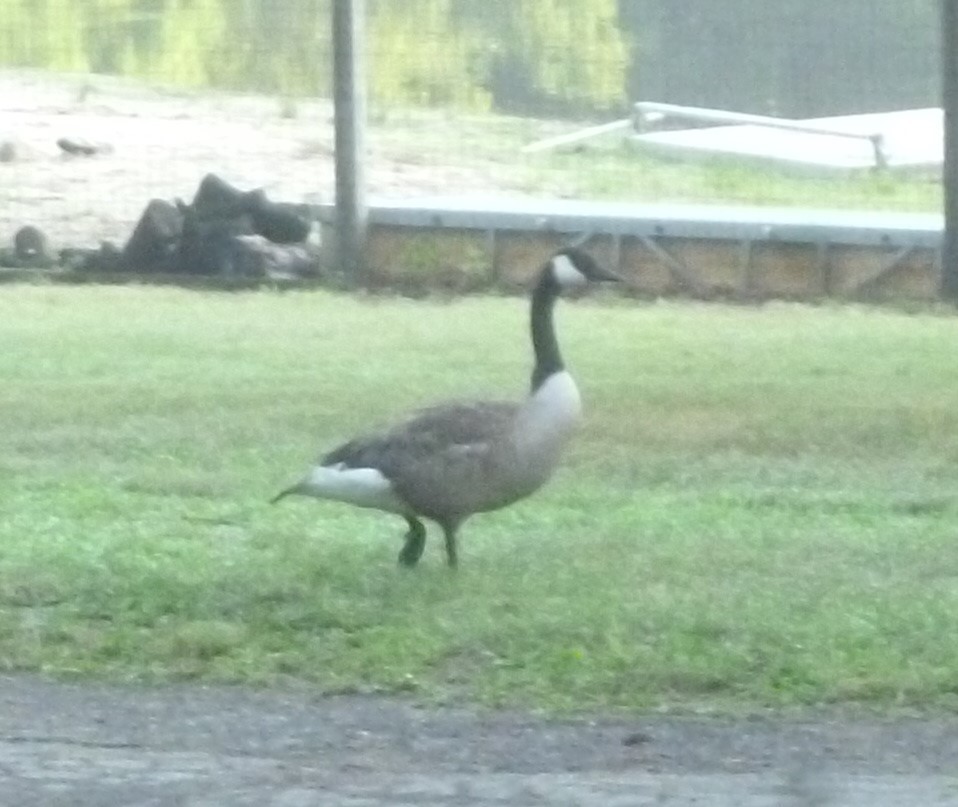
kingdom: Animalia
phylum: Chordata
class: Aves
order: Anseriformes
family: Anatidae
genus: Branta
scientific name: Branta canadensis
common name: Canada goose
